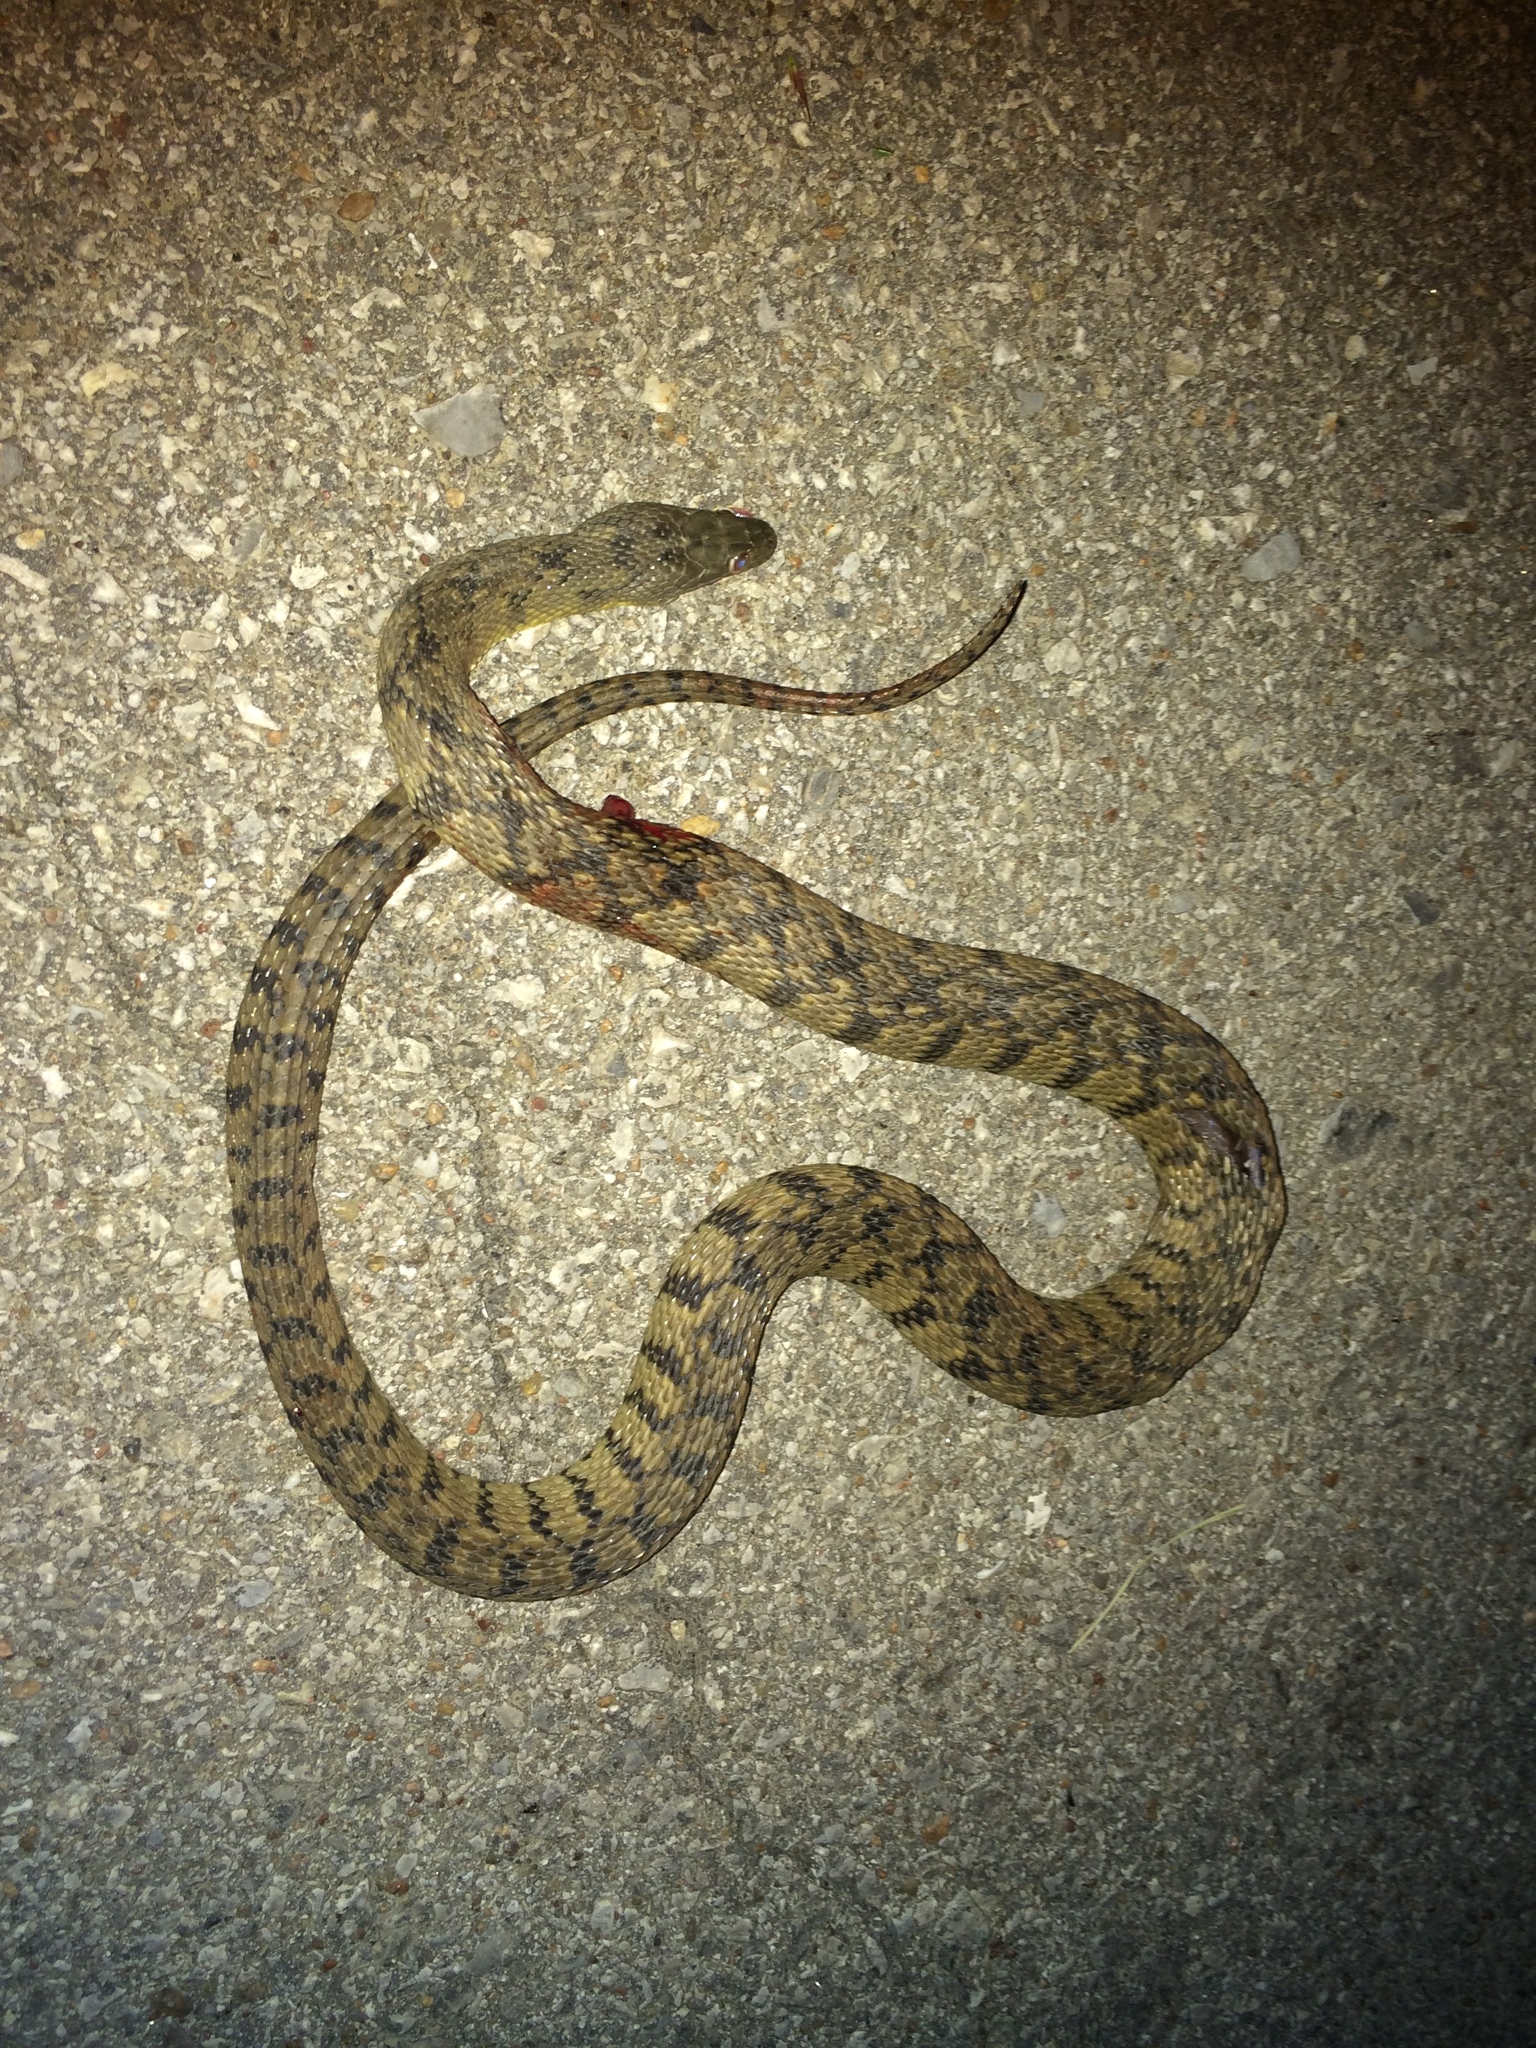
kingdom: Animalia
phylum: Chordata
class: Squamata
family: Colubridae
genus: Nerodia
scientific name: Nerodia rhombifer
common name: Diamondback water snake
